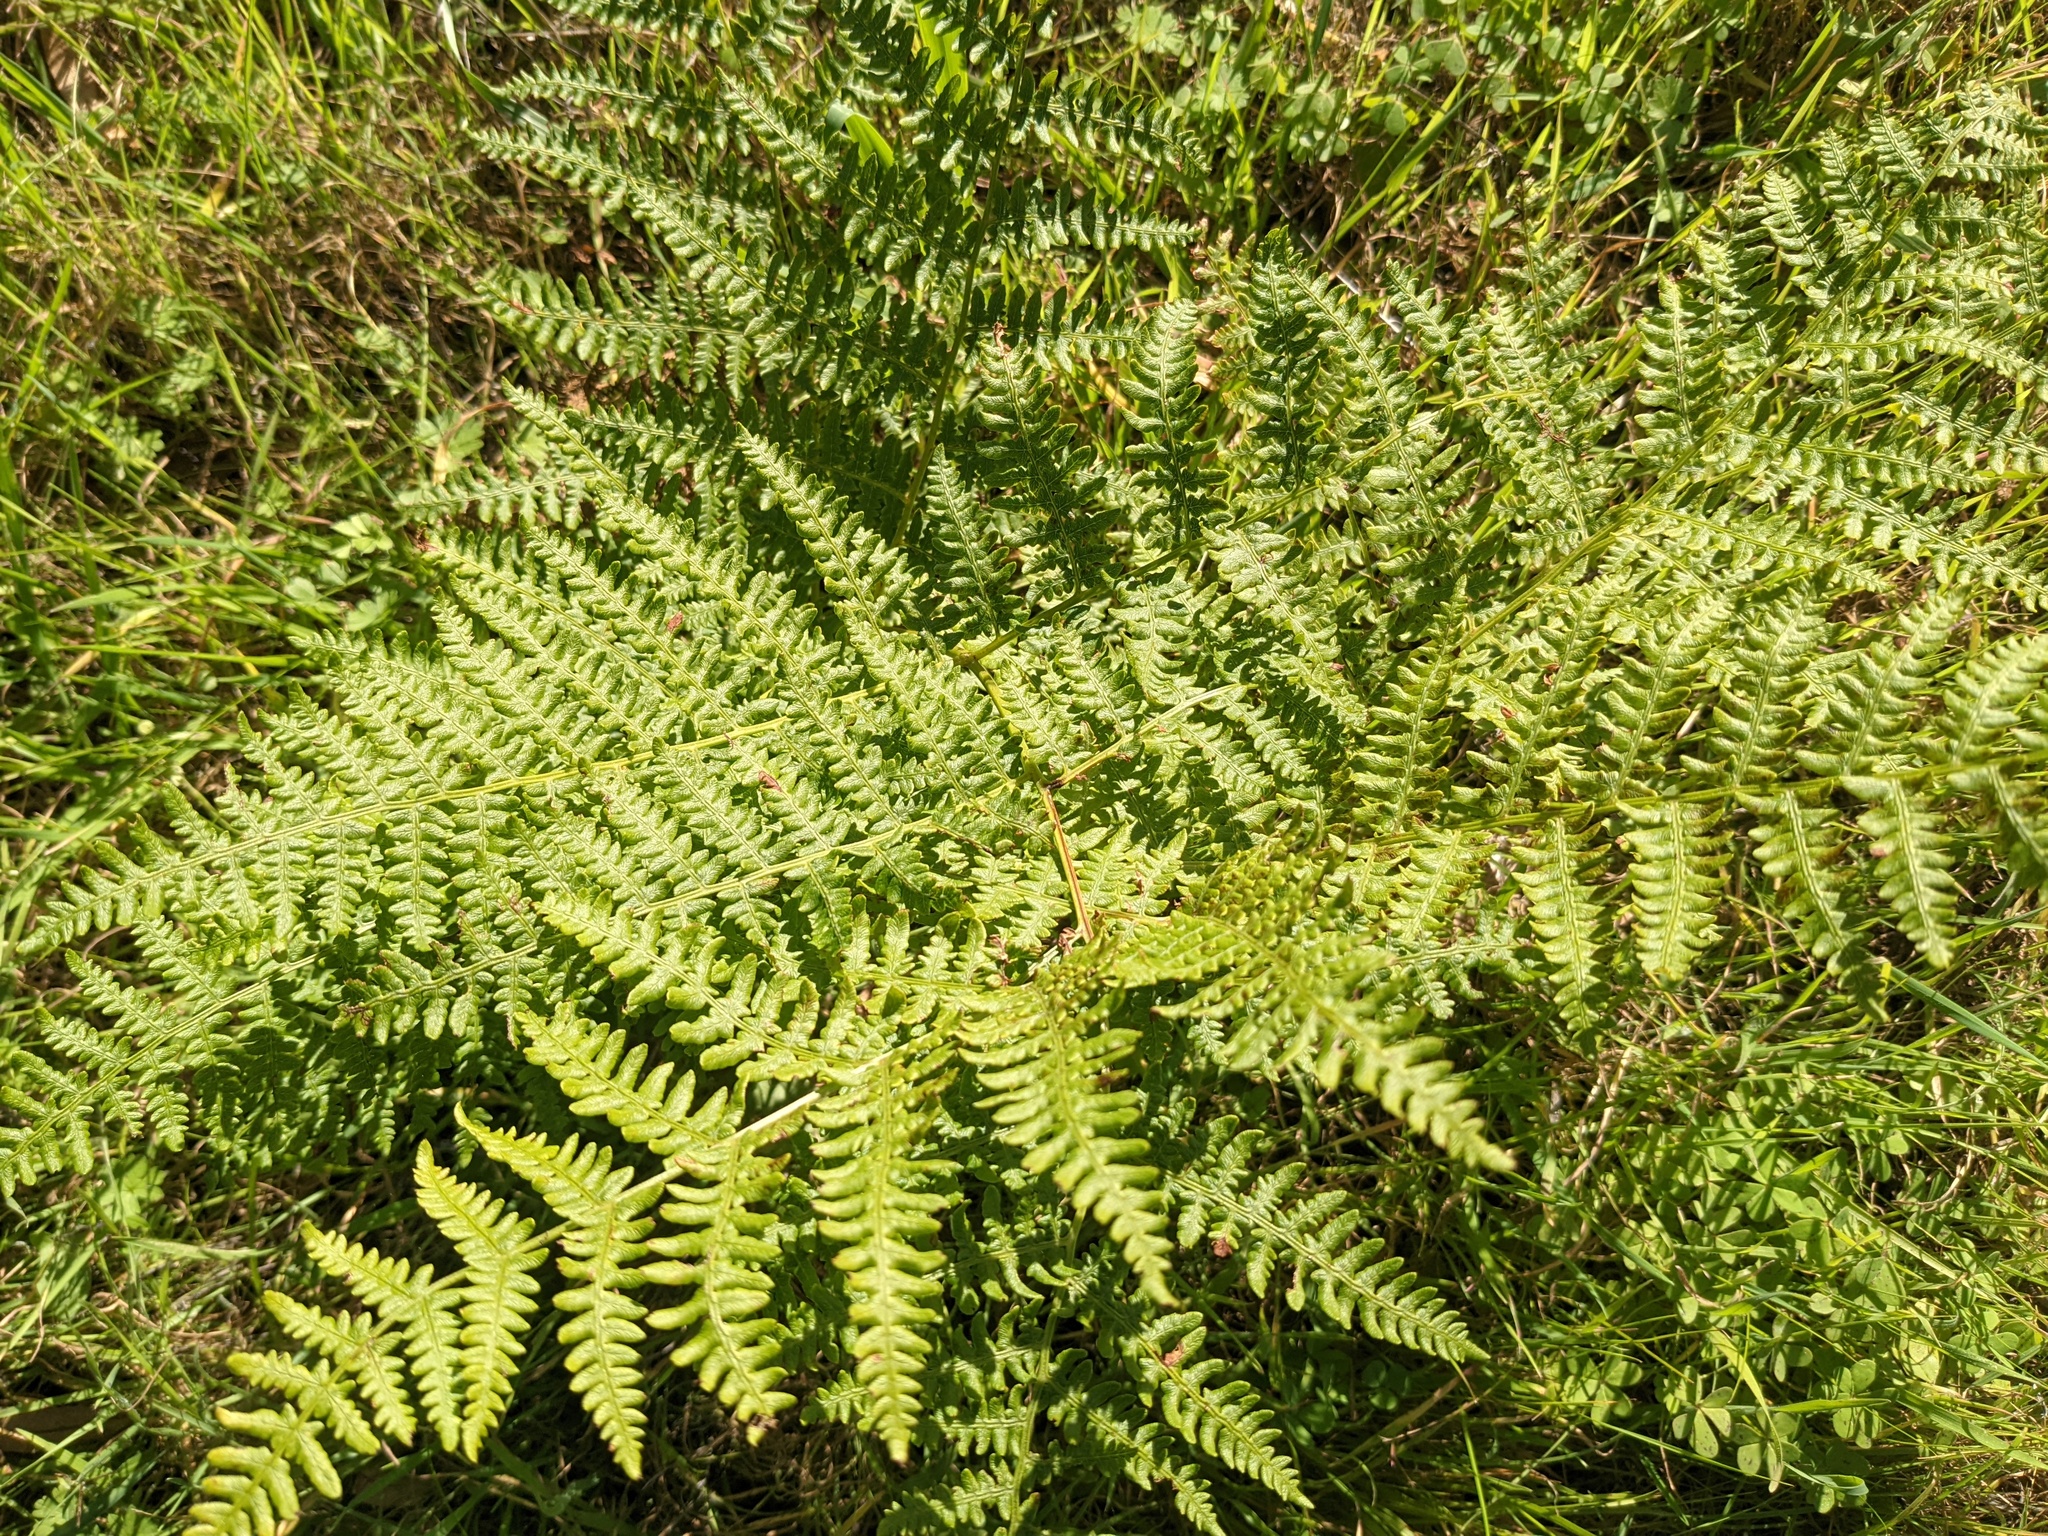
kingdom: Plantae
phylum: Tracheophyta
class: Polypodiopsida
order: Polypodiales
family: Dennstaedtiaceae
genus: Pteridium
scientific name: Pteridium aquilinum
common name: Bracken
